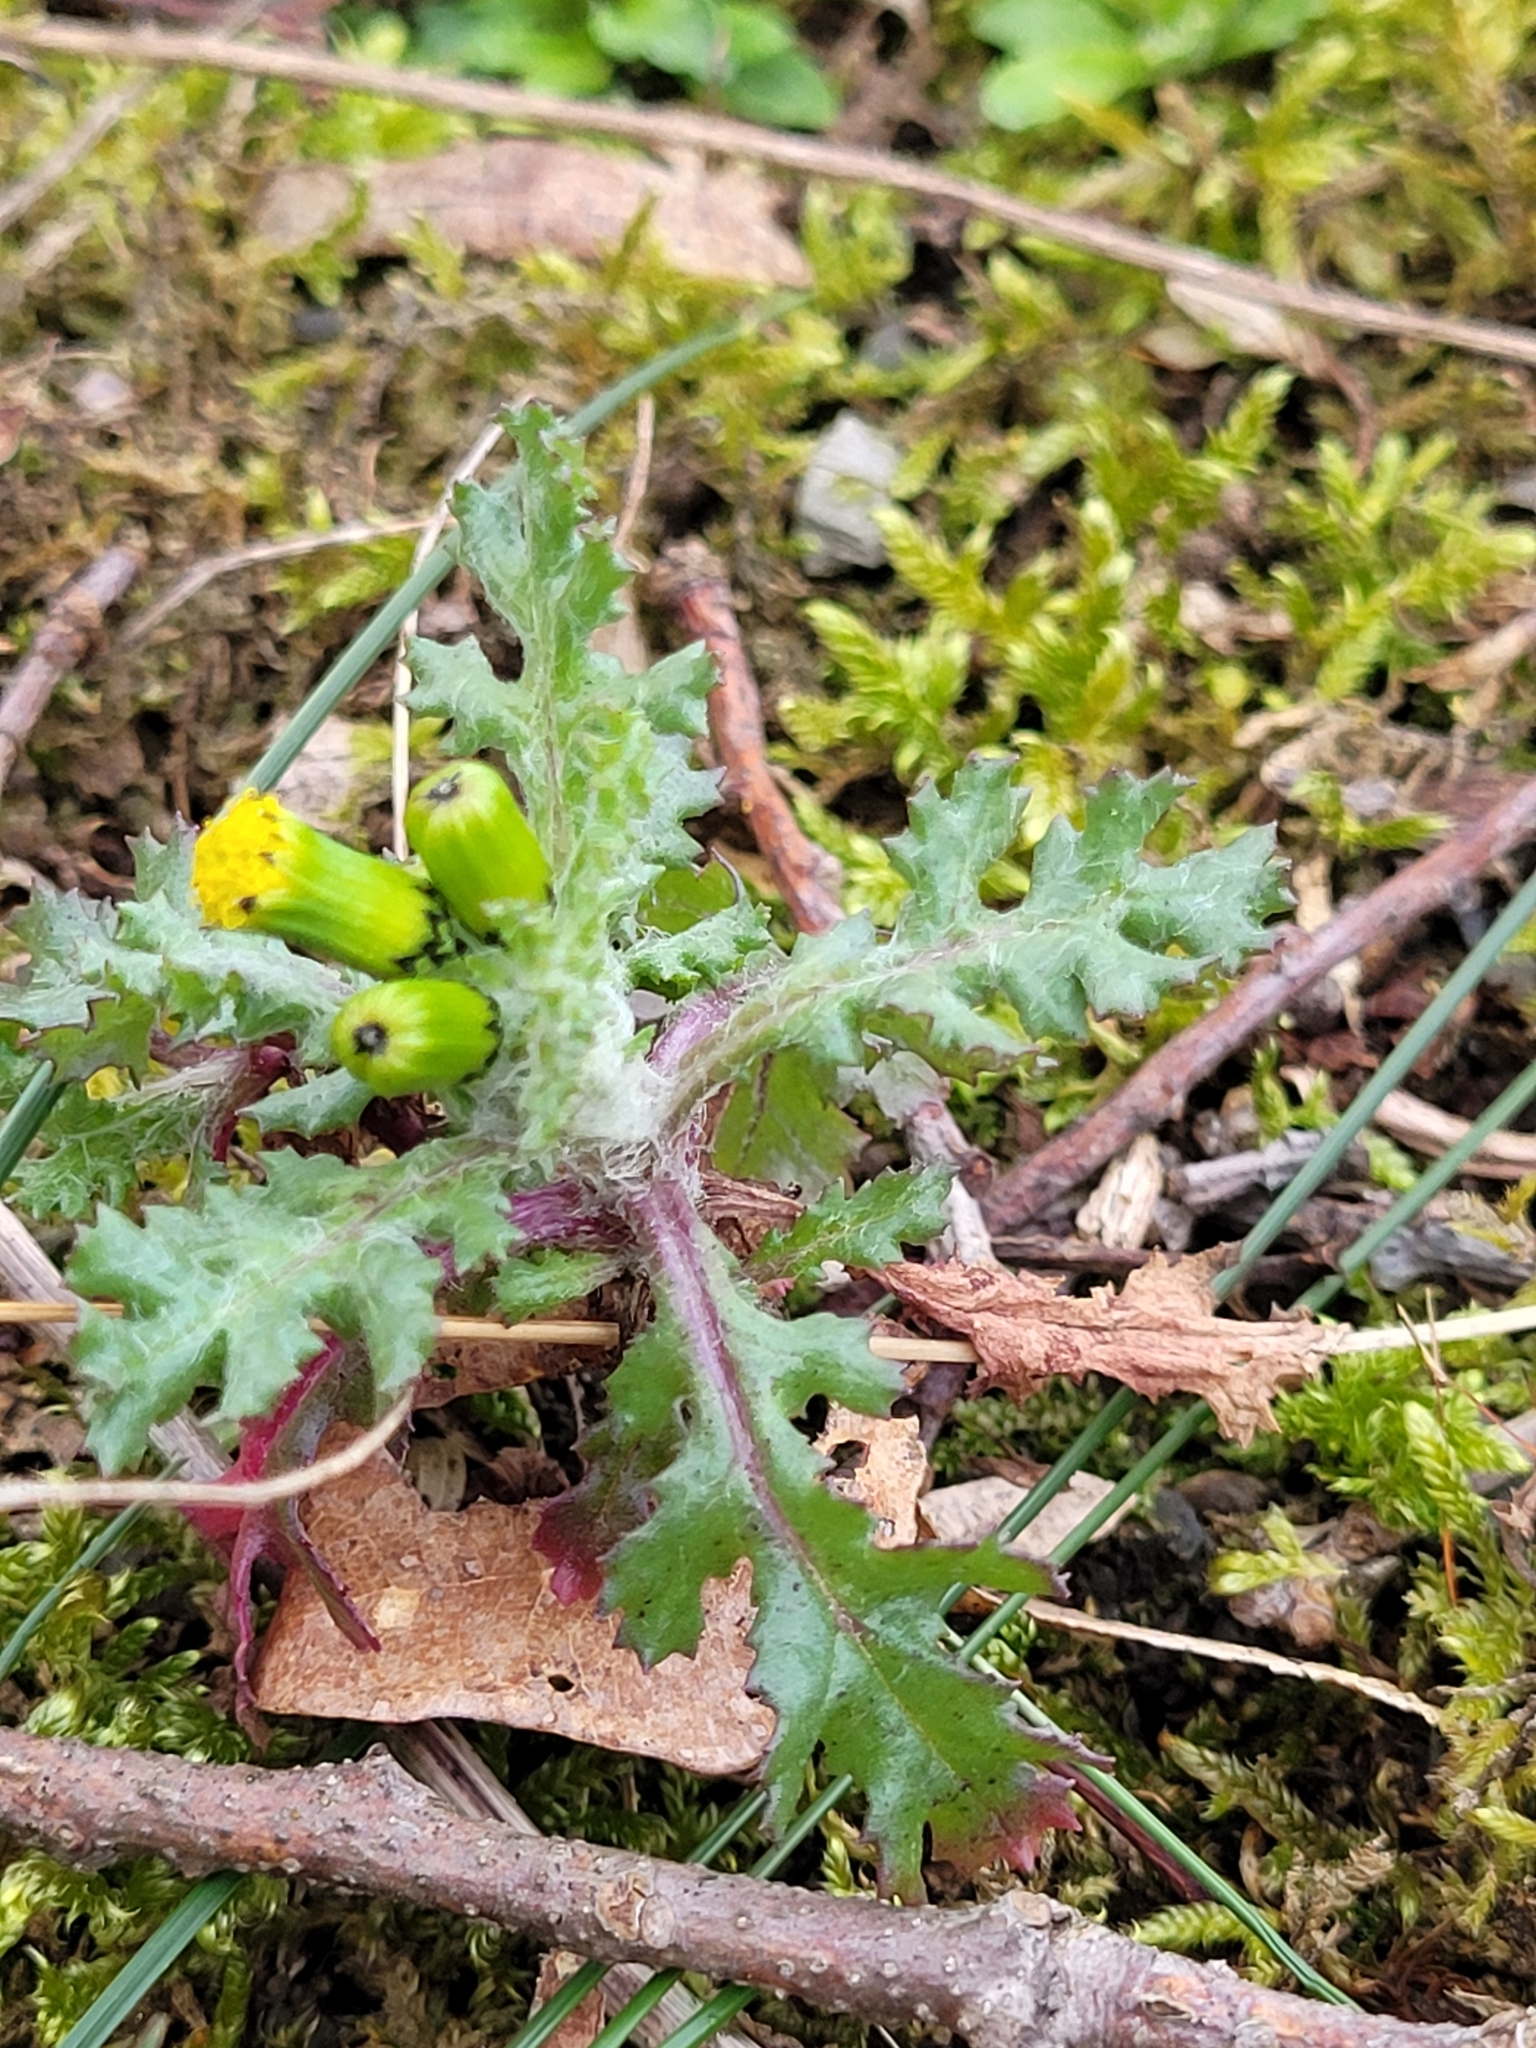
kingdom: Plantae
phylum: Tracheophyta
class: Magnoliopsida
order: Asterales
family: Asteraceae
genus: Senecio
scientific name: Senecio vulgaris
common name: Old-man-in-the-spring
